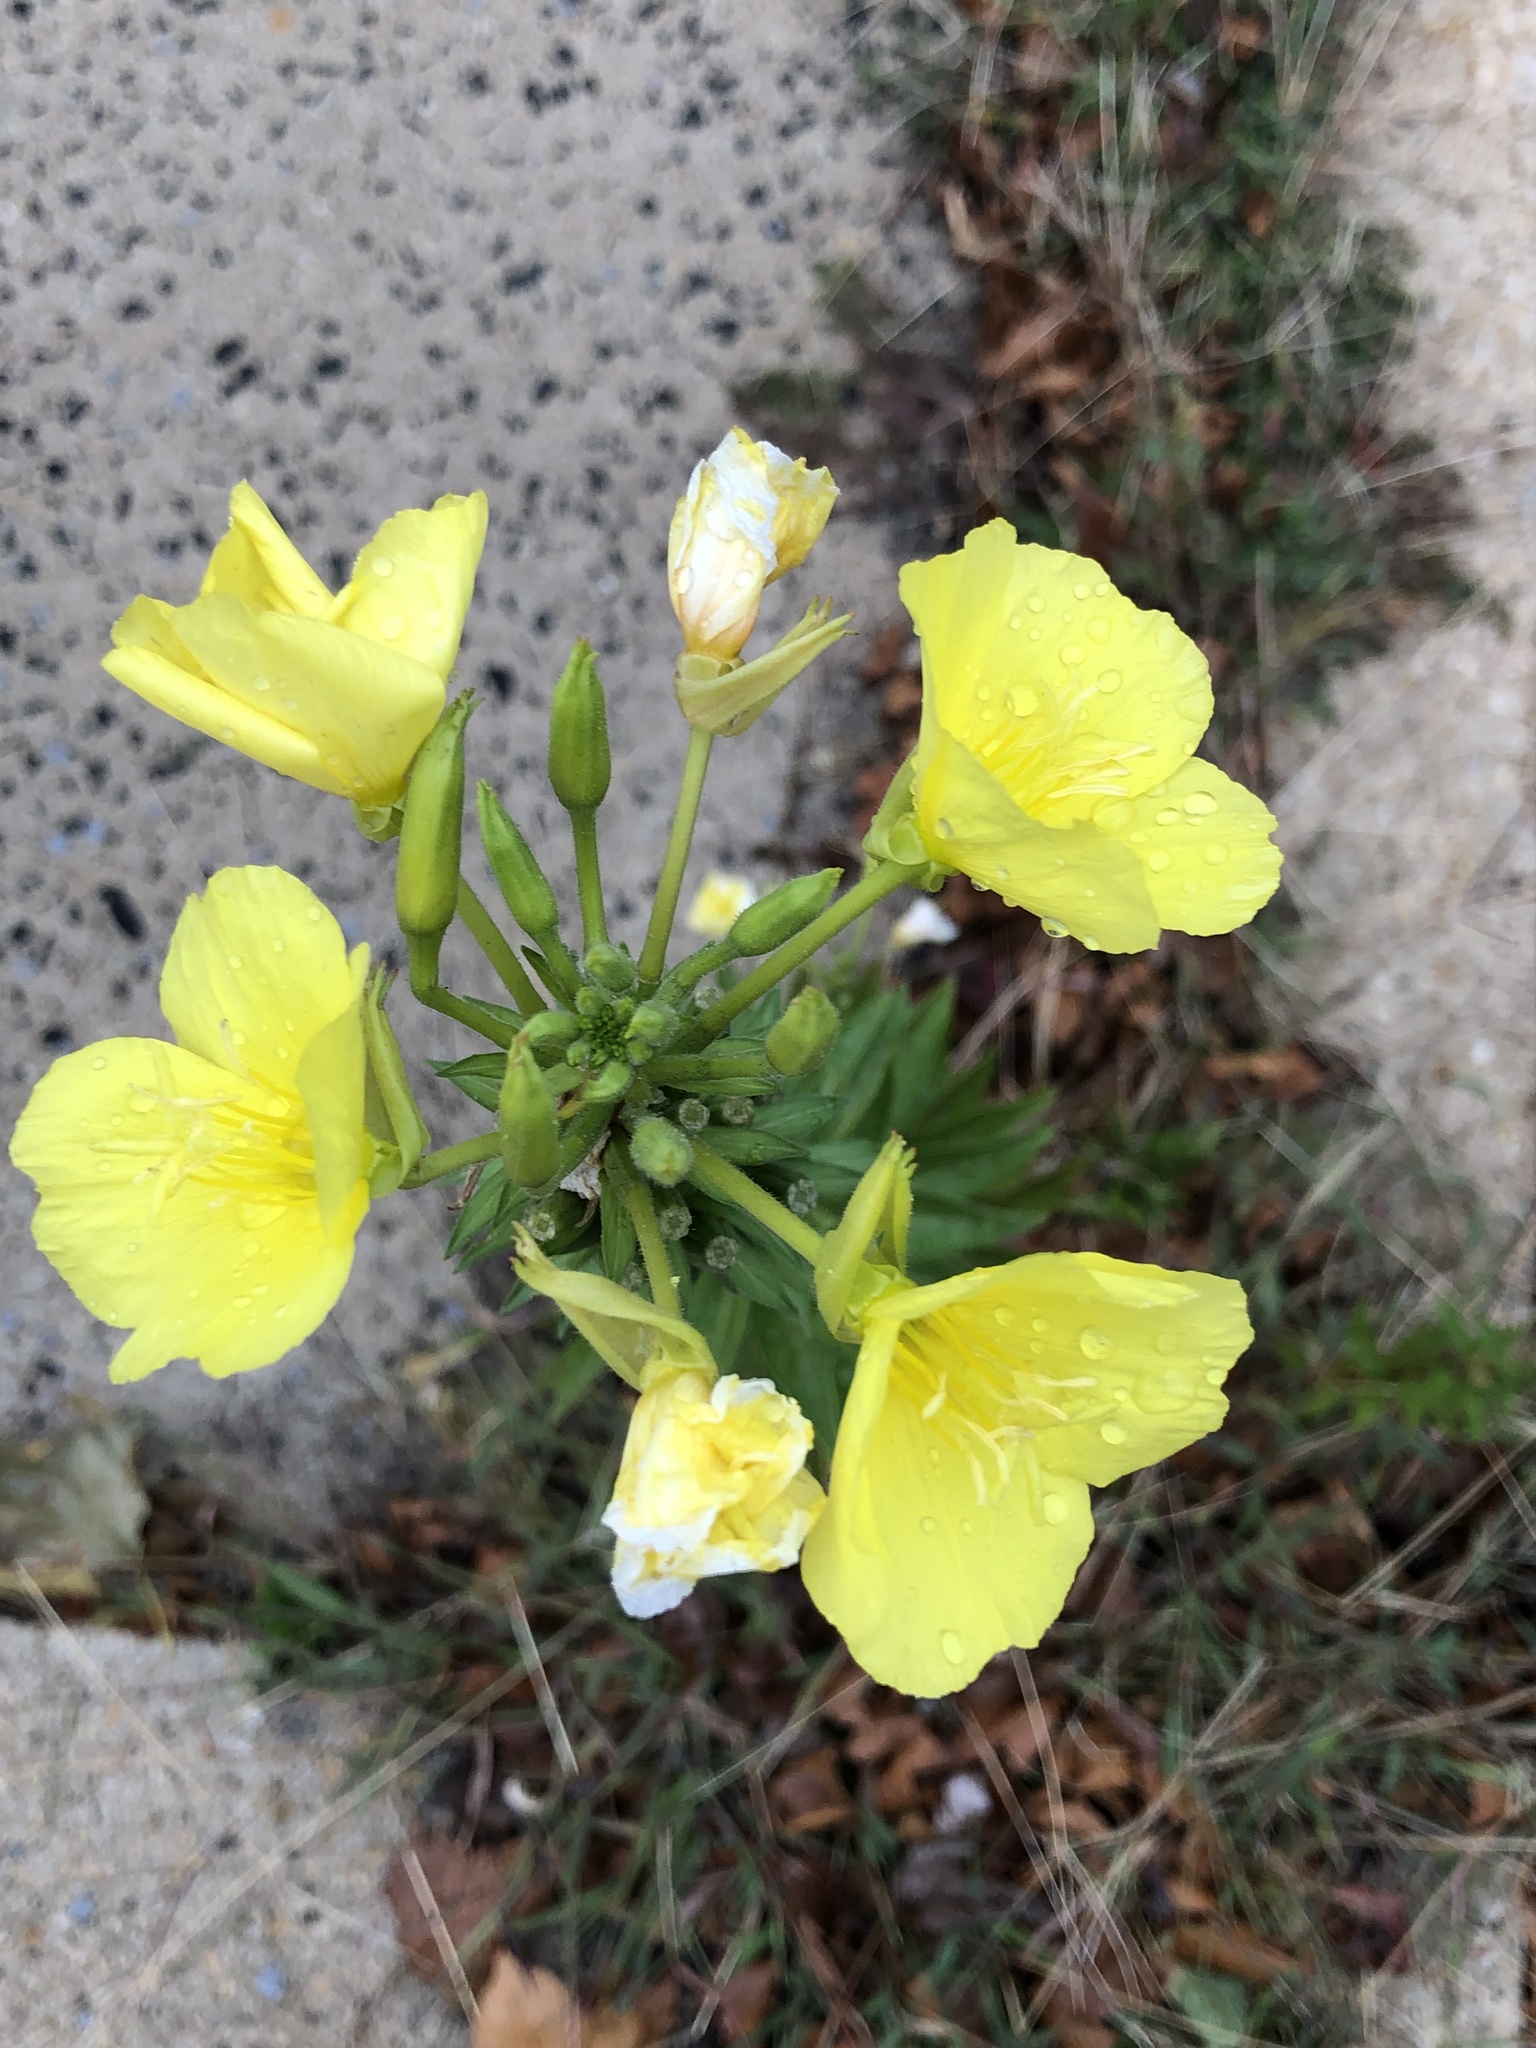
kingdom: Plantae
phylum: Tracheophyta
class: Magnoliopsida
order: Myrtales
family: Onagraceae
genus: Oenothera
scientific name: Oenothera biennis
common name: Common evening-primrose
